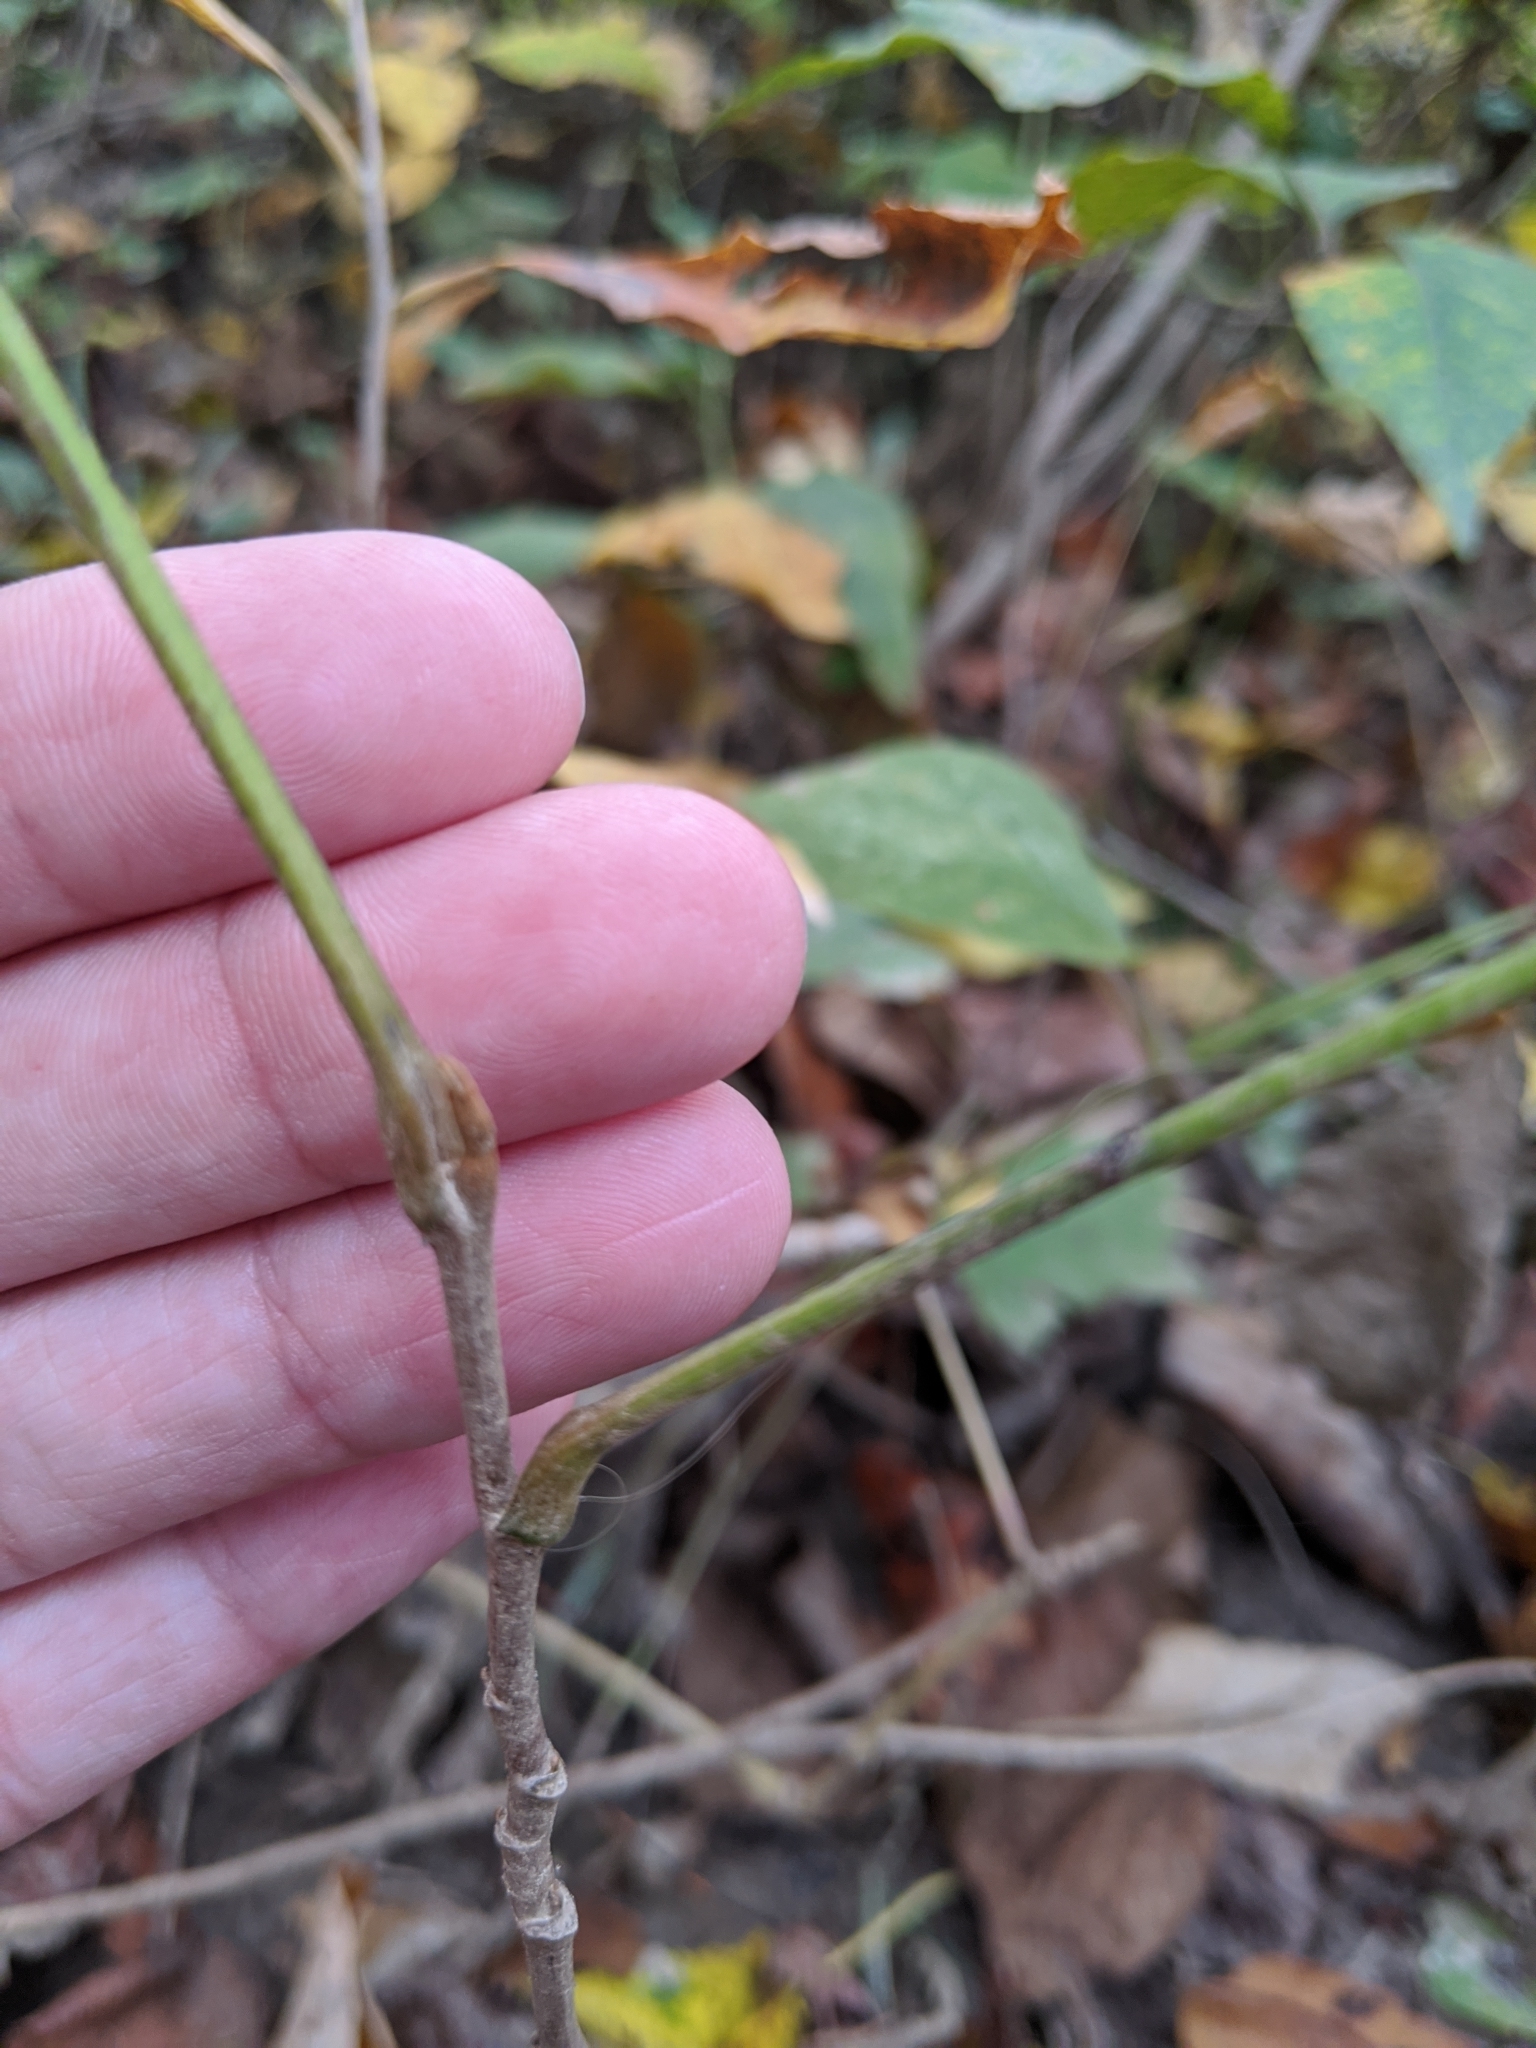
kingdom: Plantae
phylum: Tracheophyta
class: Magnoliopsida
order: Sapindales
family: Anacardiaceae
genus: Toxicodendron
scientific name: Toxicodendron radicans
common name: Poison ivy
